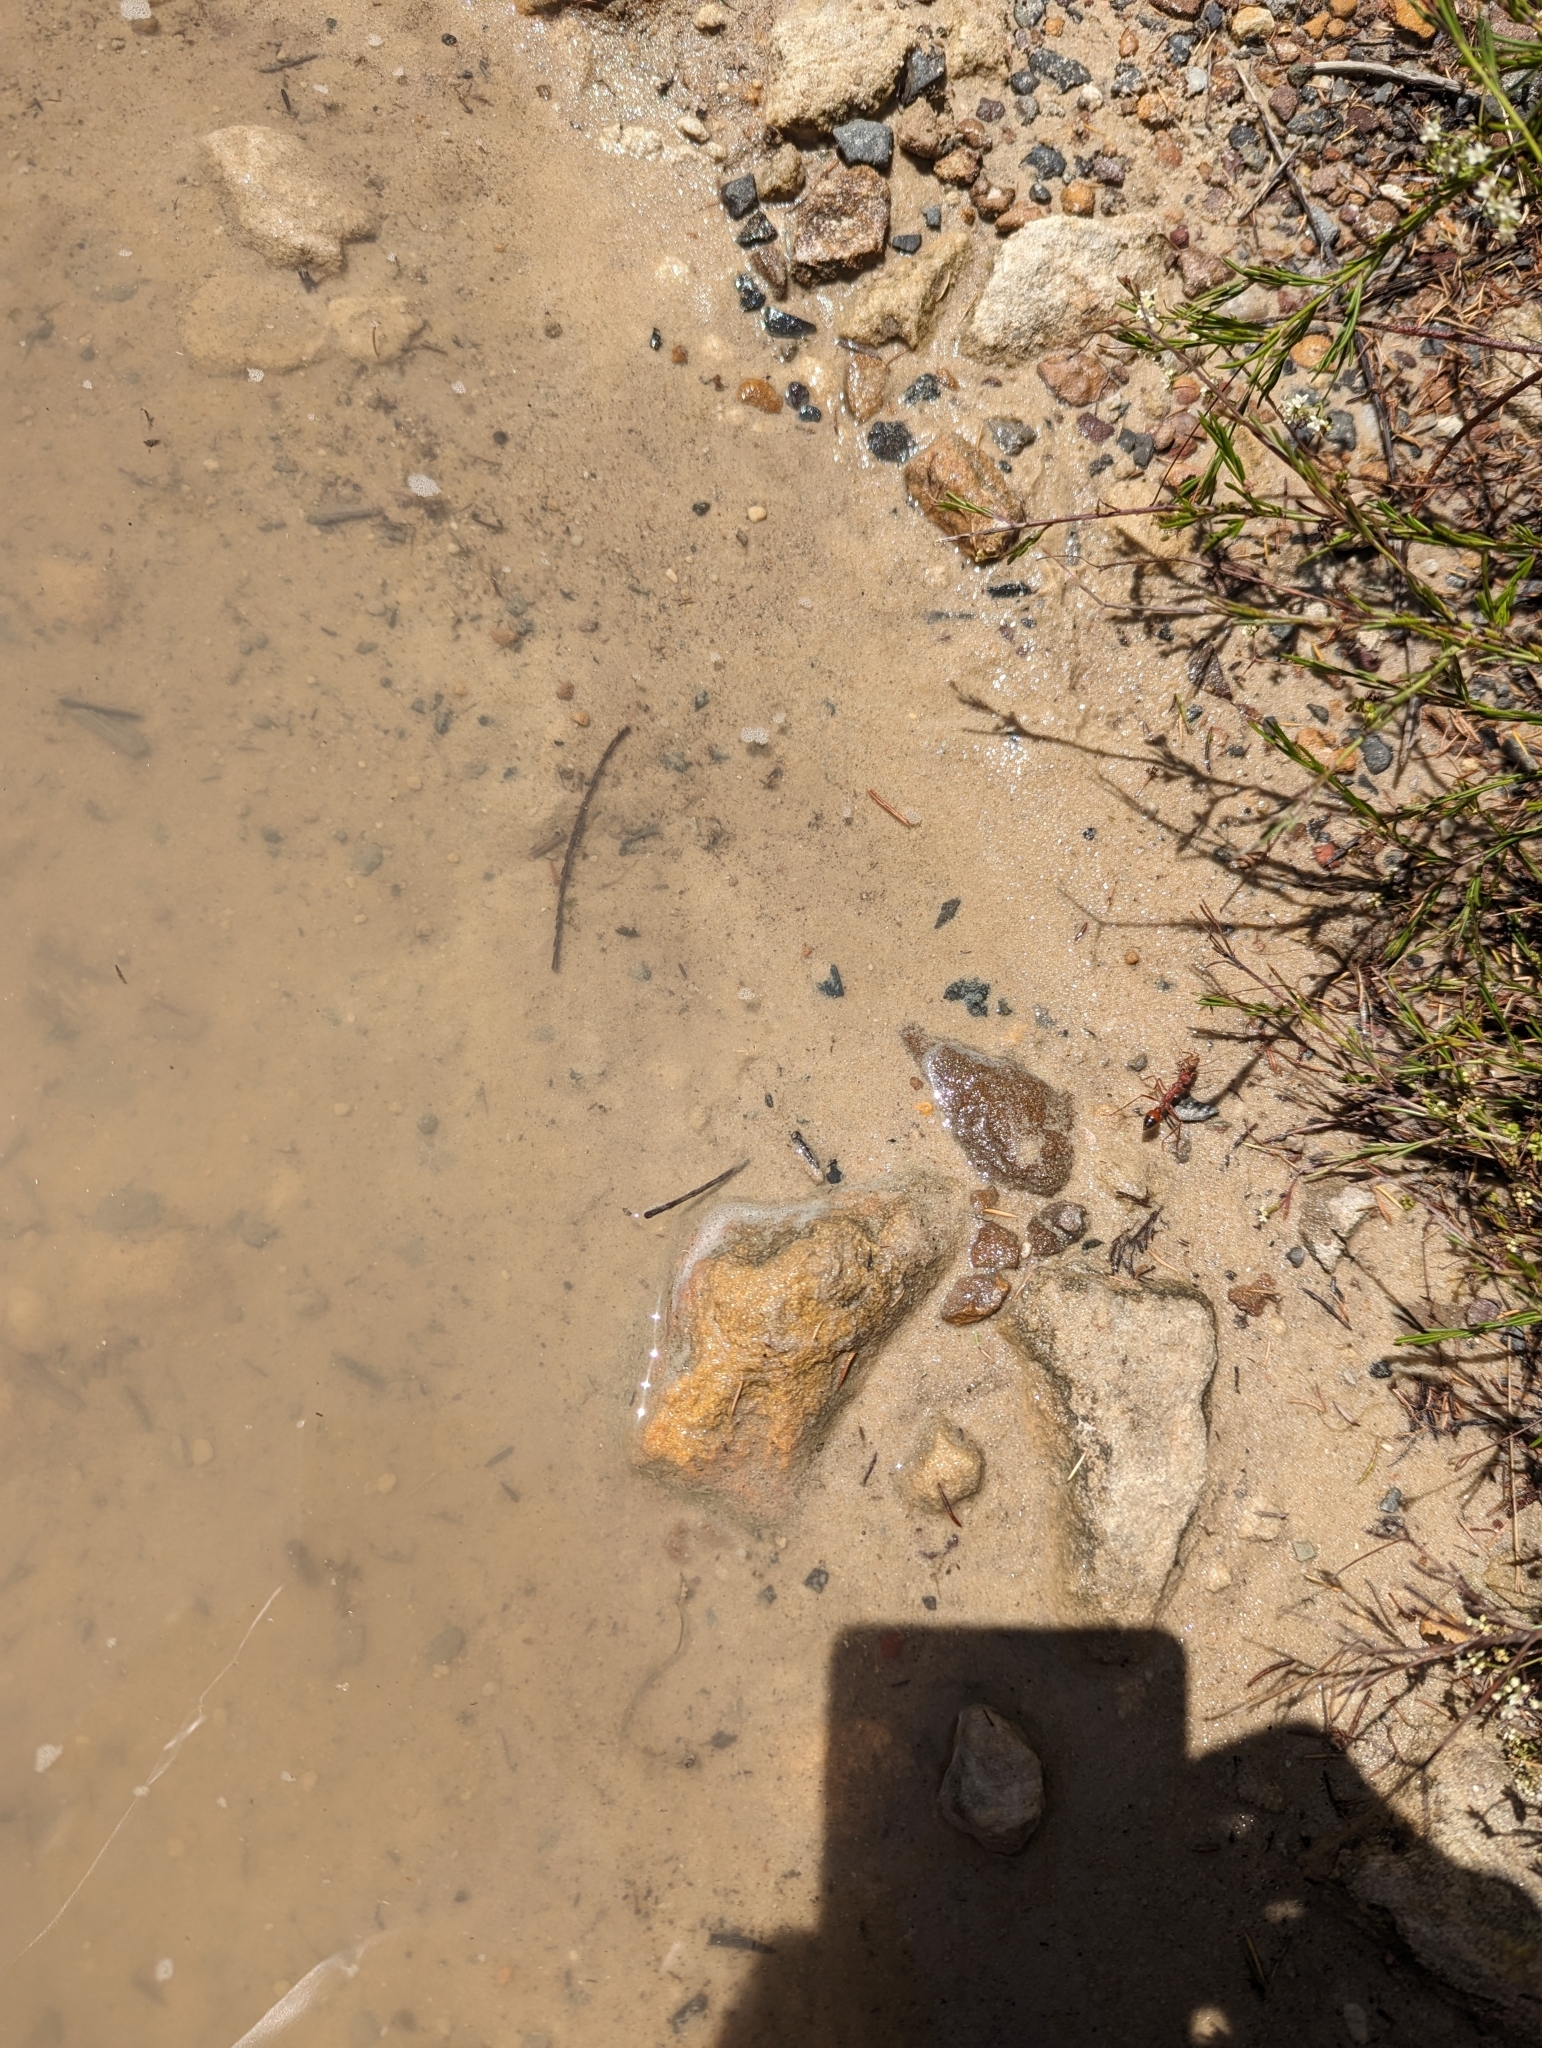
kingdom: Animalia
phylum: Arthropoda
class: Insecta
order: Hymenoptera
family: Formicidae
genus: Myrmecia
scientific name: Myrmecia gulosa
